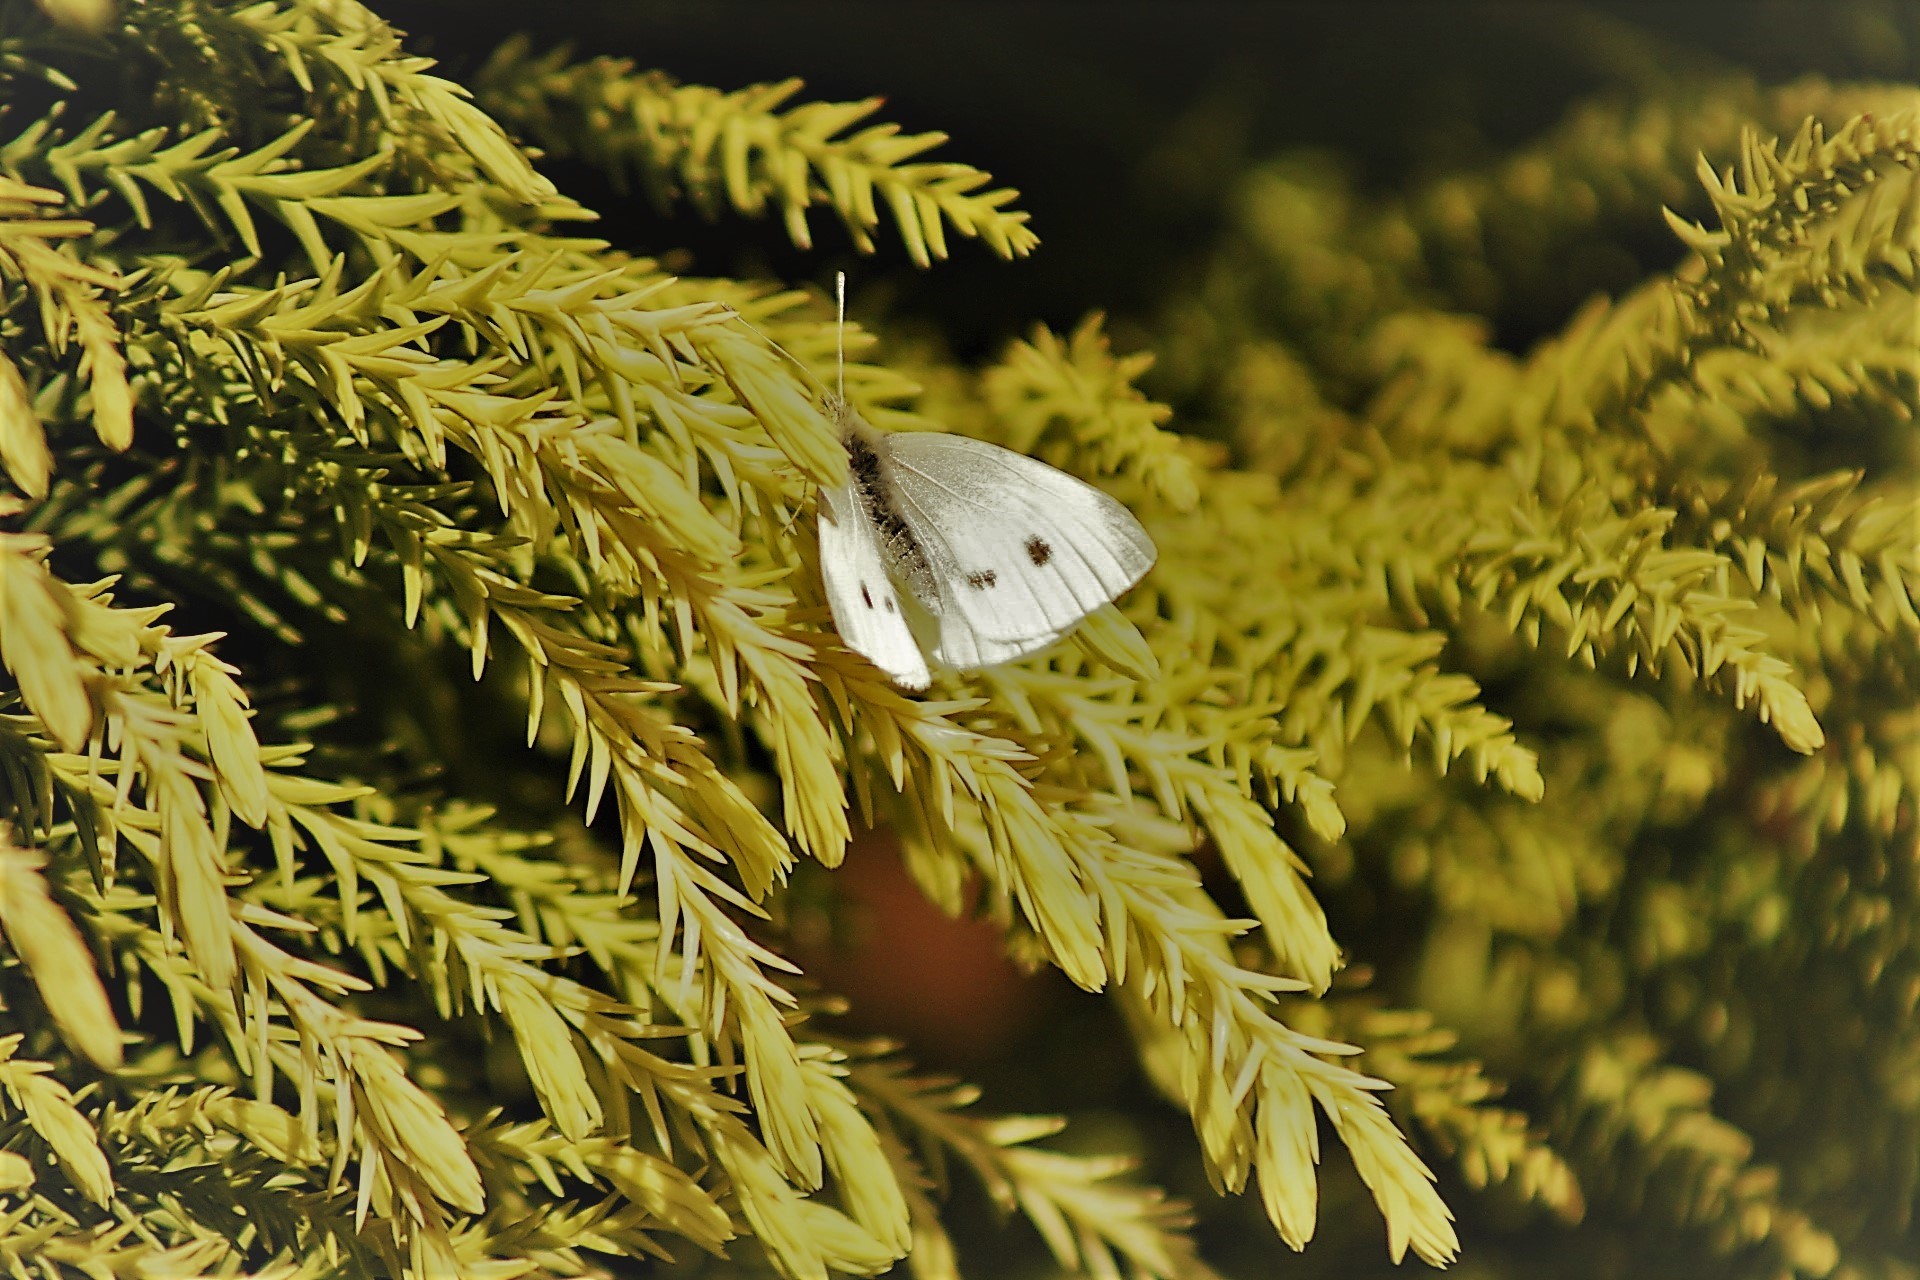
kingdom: Animalia
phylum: Arthropoda
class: Insecta
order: Lepidoptera
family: Pieridae
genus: Pieris
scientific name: Pieris rapae
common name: Small white
